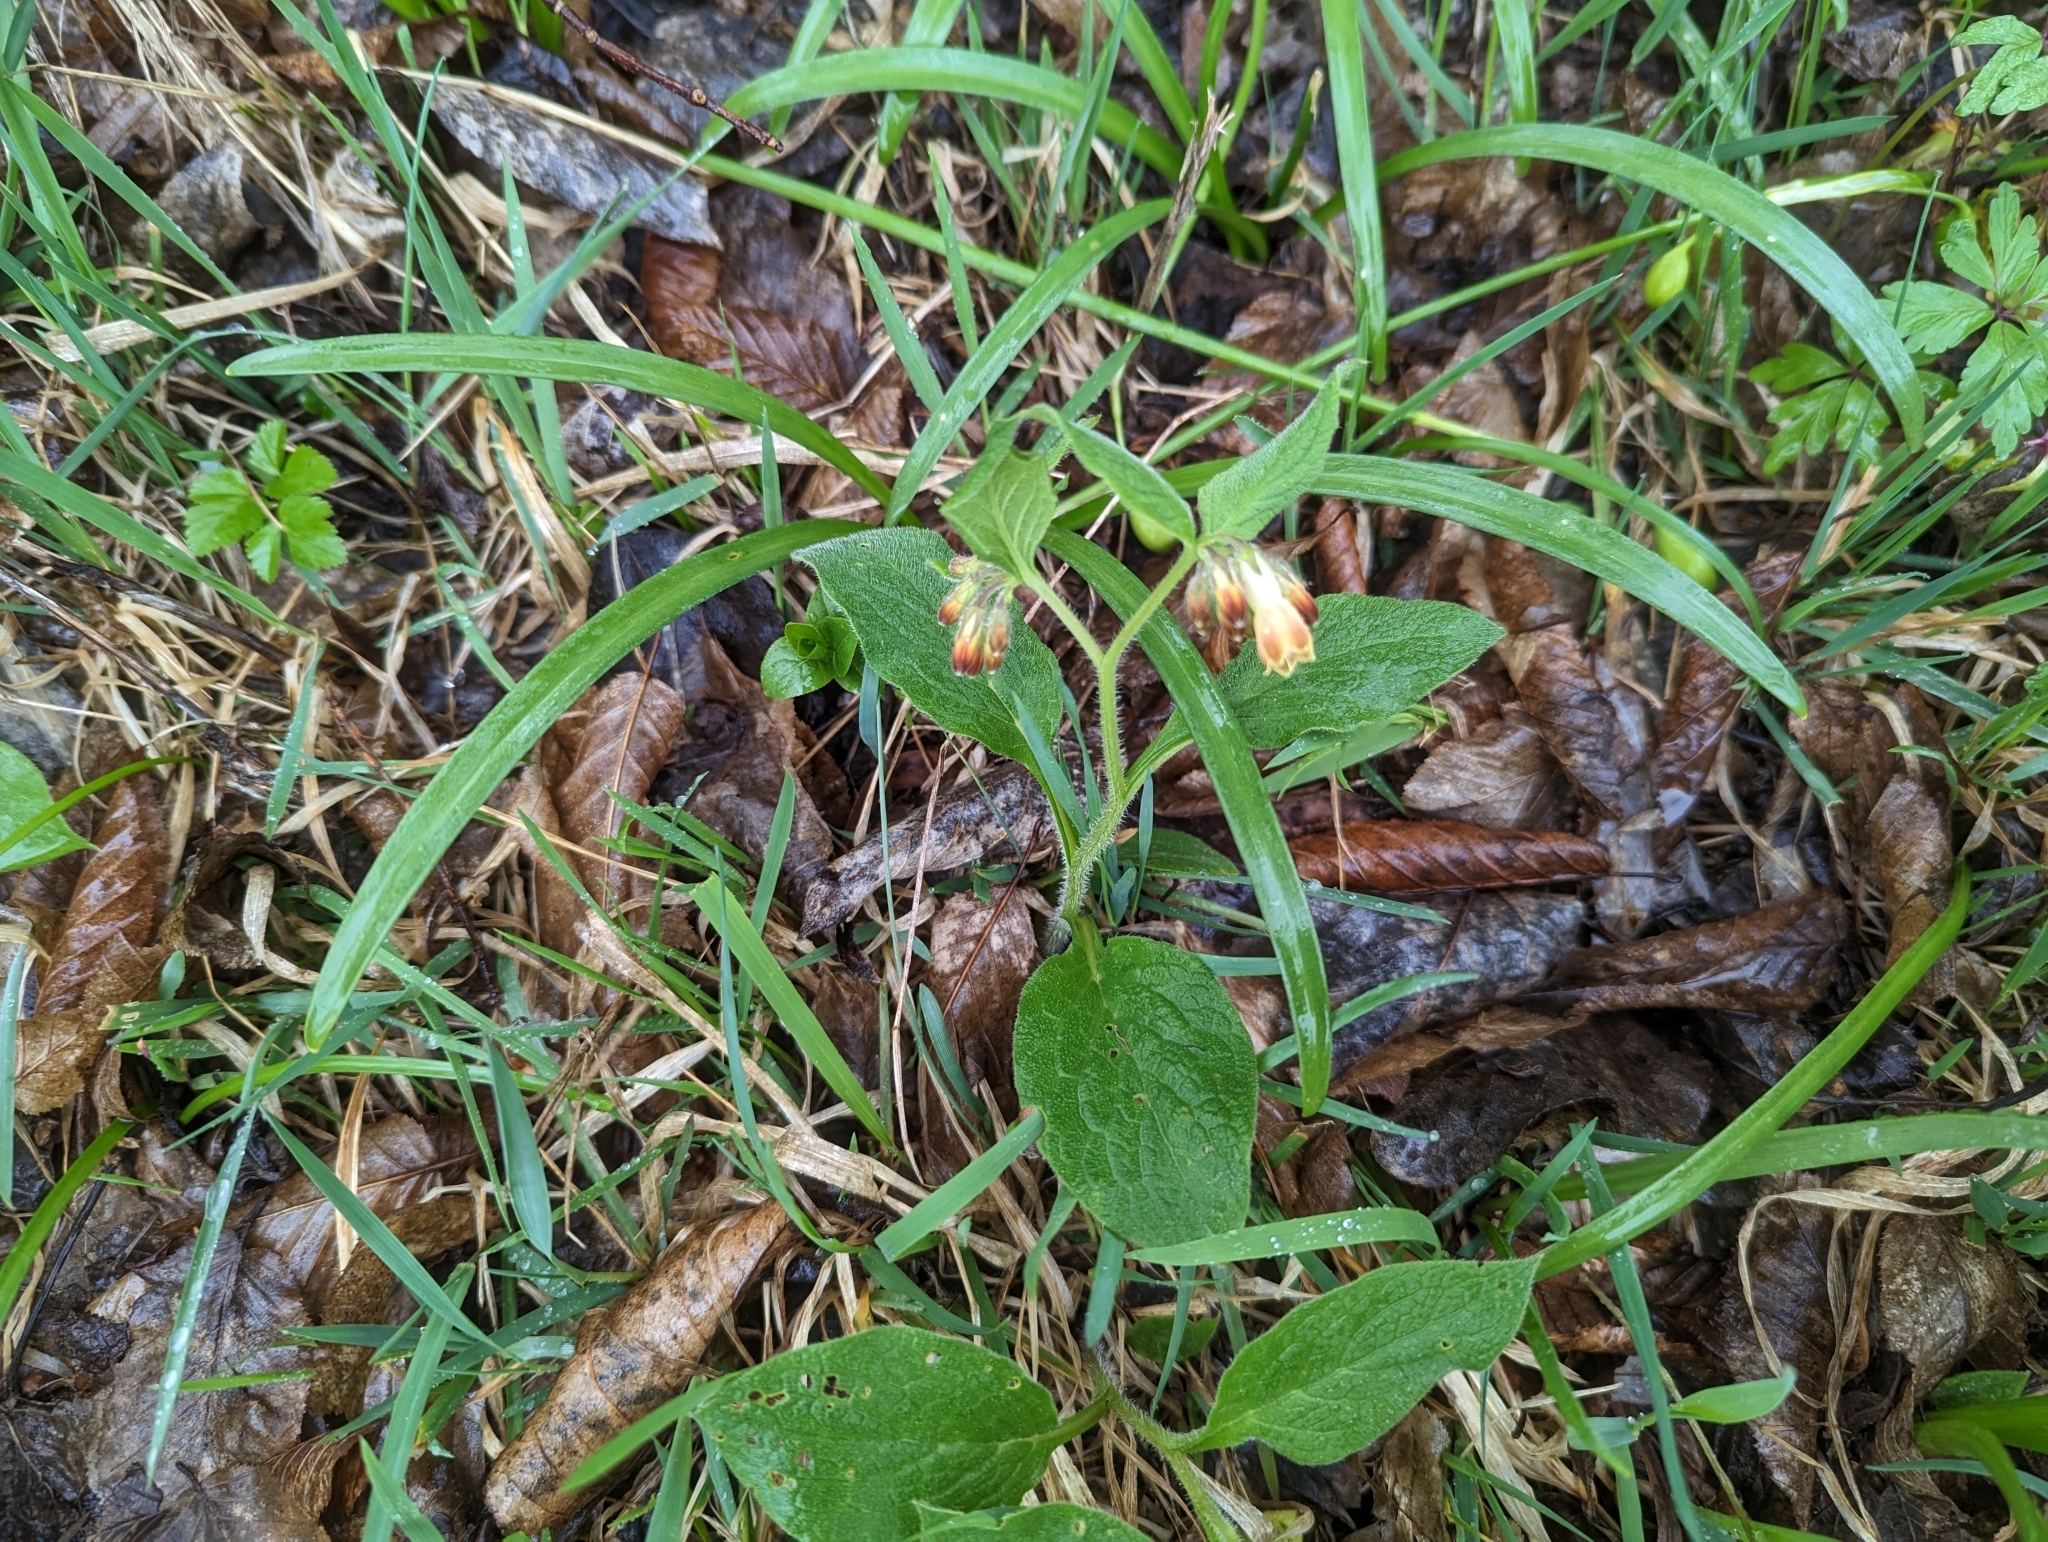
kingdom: Plantae
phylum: Tracheophyta
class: Magnoliopsida
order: Boraginales
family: Boraginaceae
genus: Symphytum
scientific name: Symphytum tuberosum
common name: Tuberous comfrey
